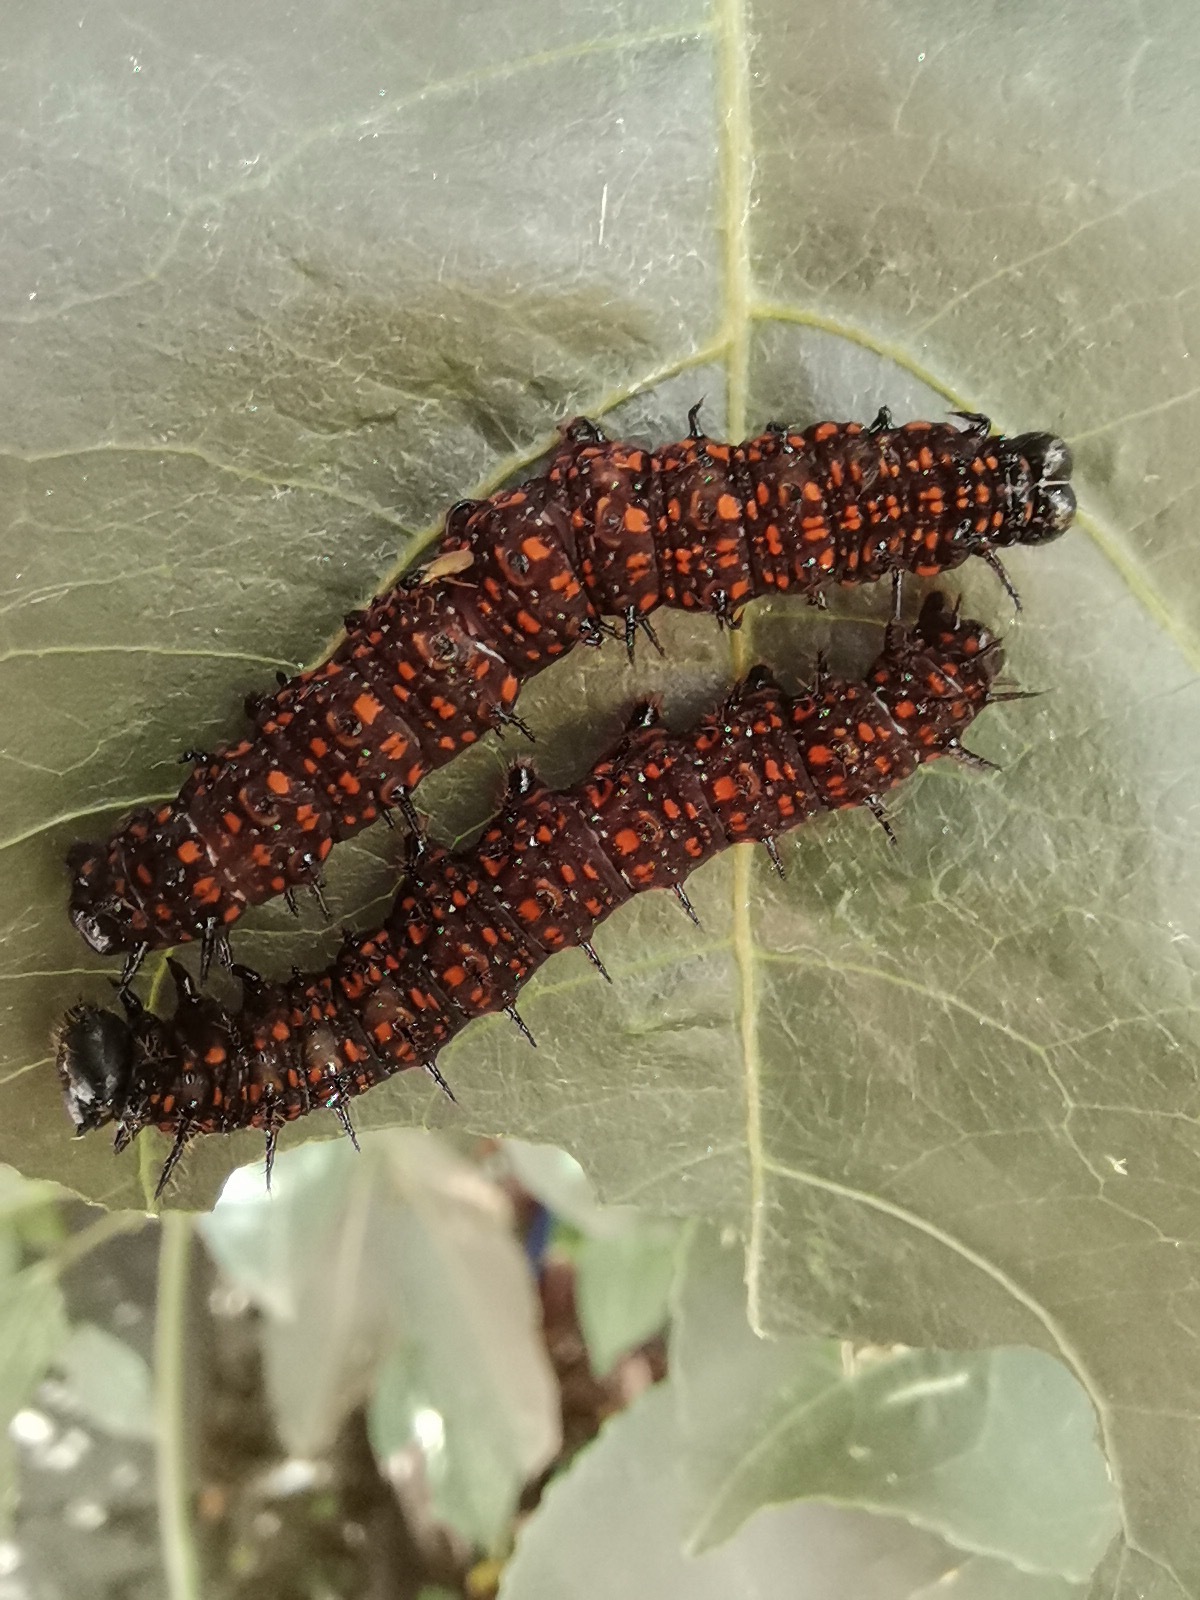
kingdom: Animalia
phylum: Arthropoda
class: Insecta
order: Lepidoptera
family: Nymphalidae
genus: Dione
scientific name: Dione juno
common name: Juno silverspot
